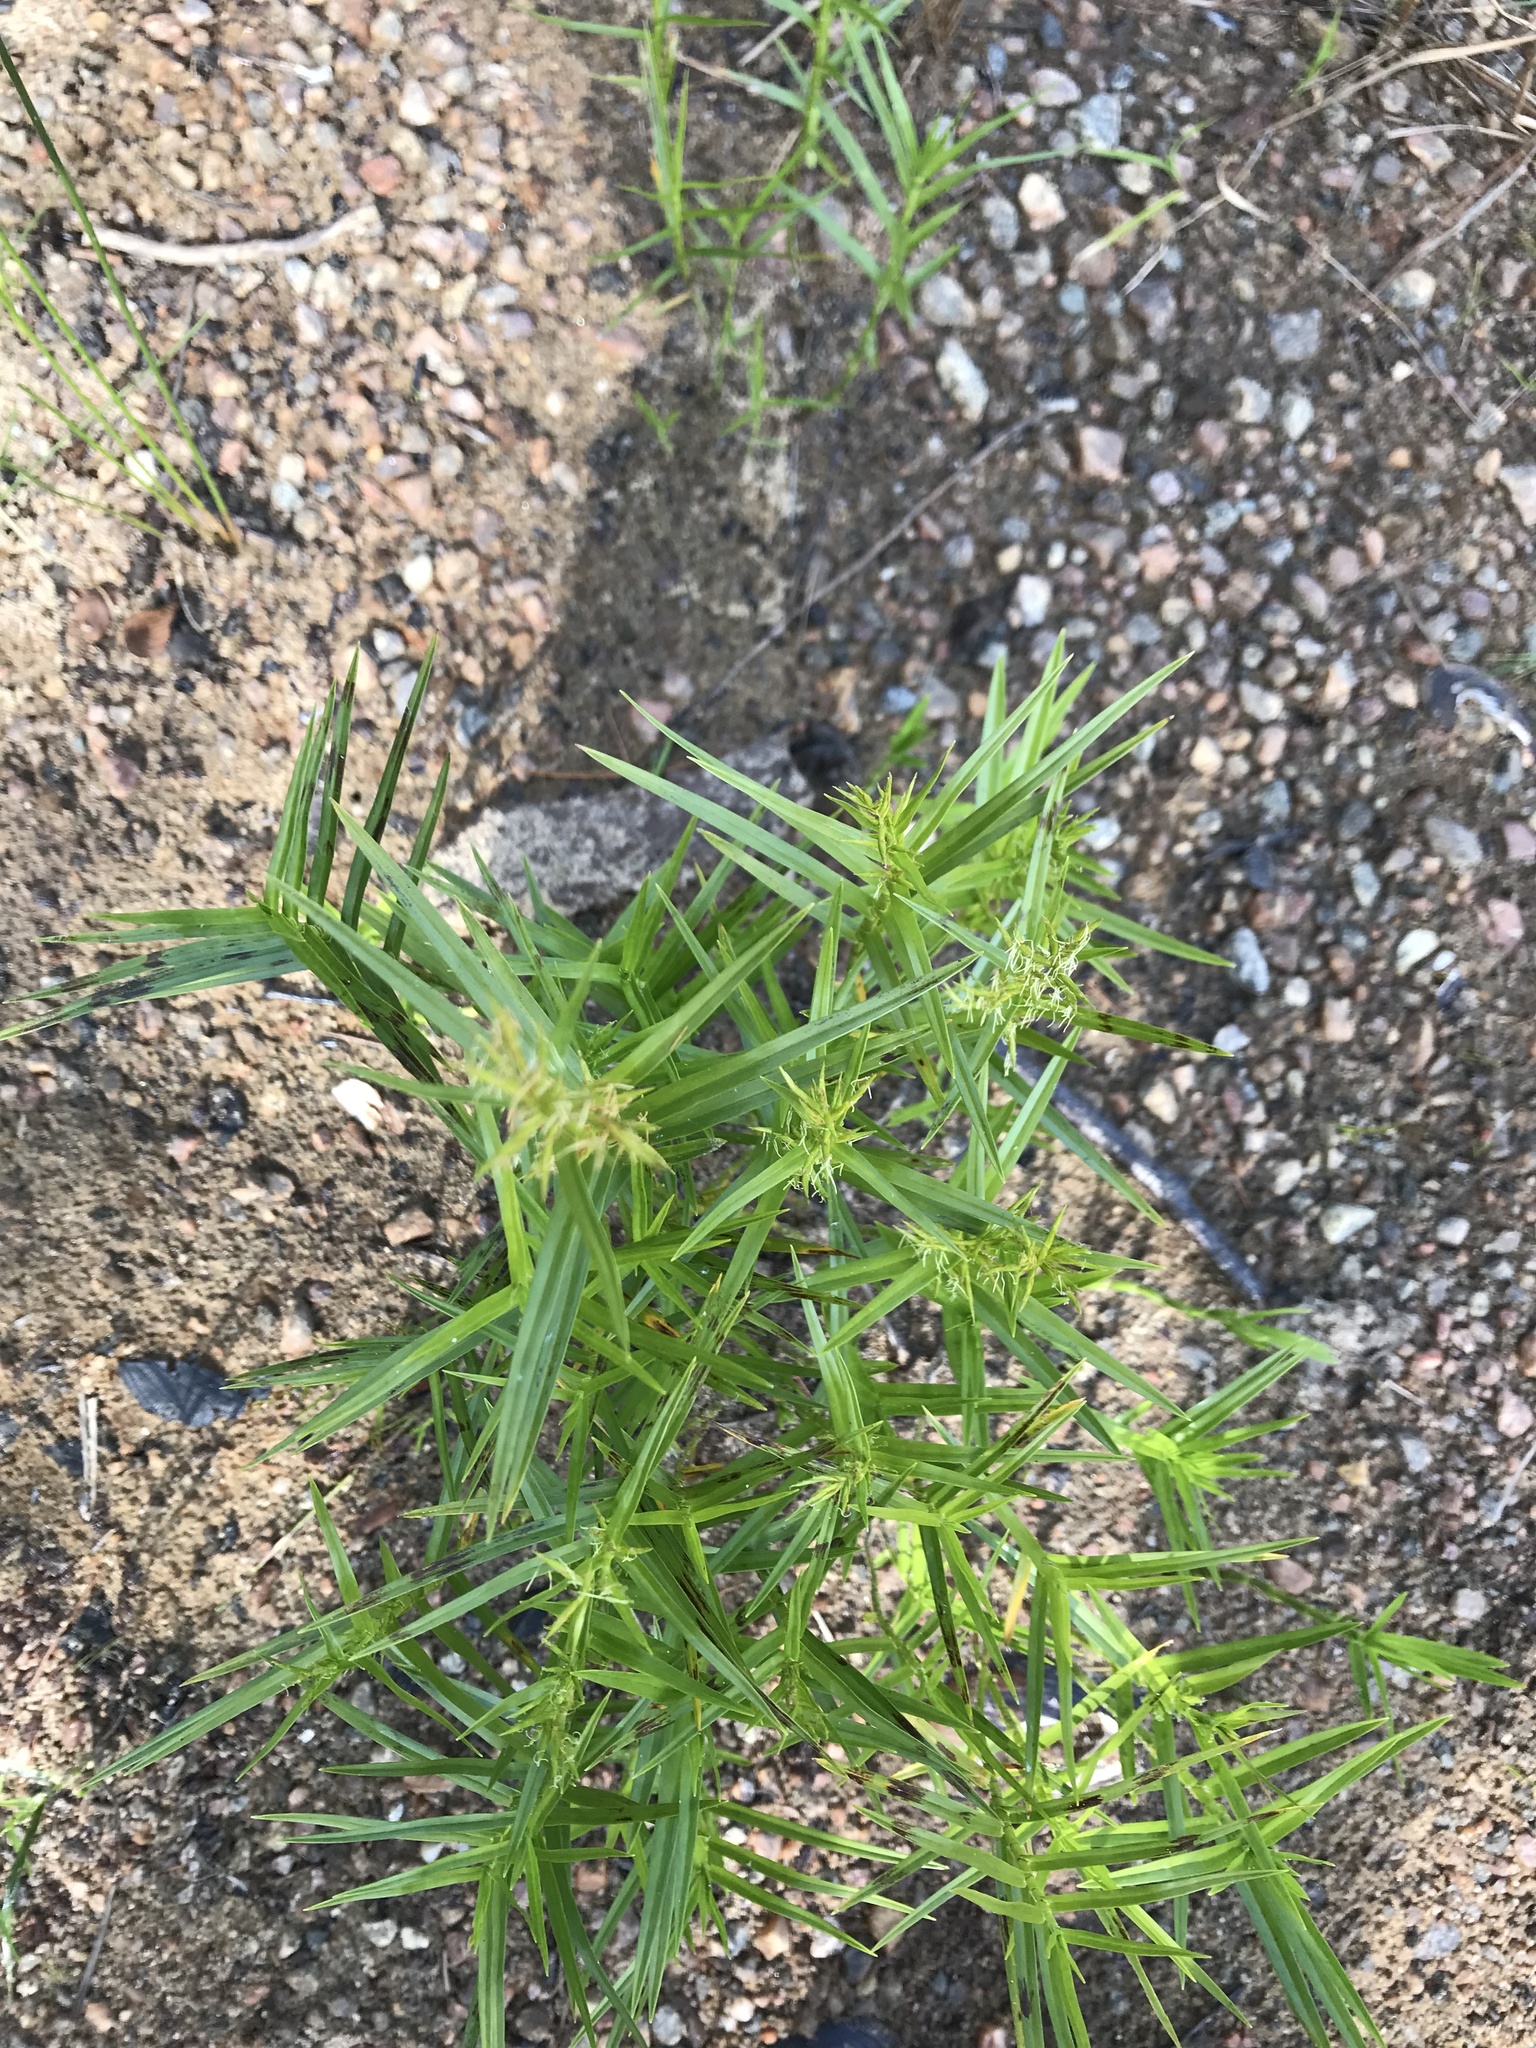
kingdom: Plantae
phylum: Tracheophyta
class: Liliopsida
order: Poales
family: Cyperaceae
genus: Dulichium
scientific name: Dulichium arundinaceum
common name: Three-way sedge
